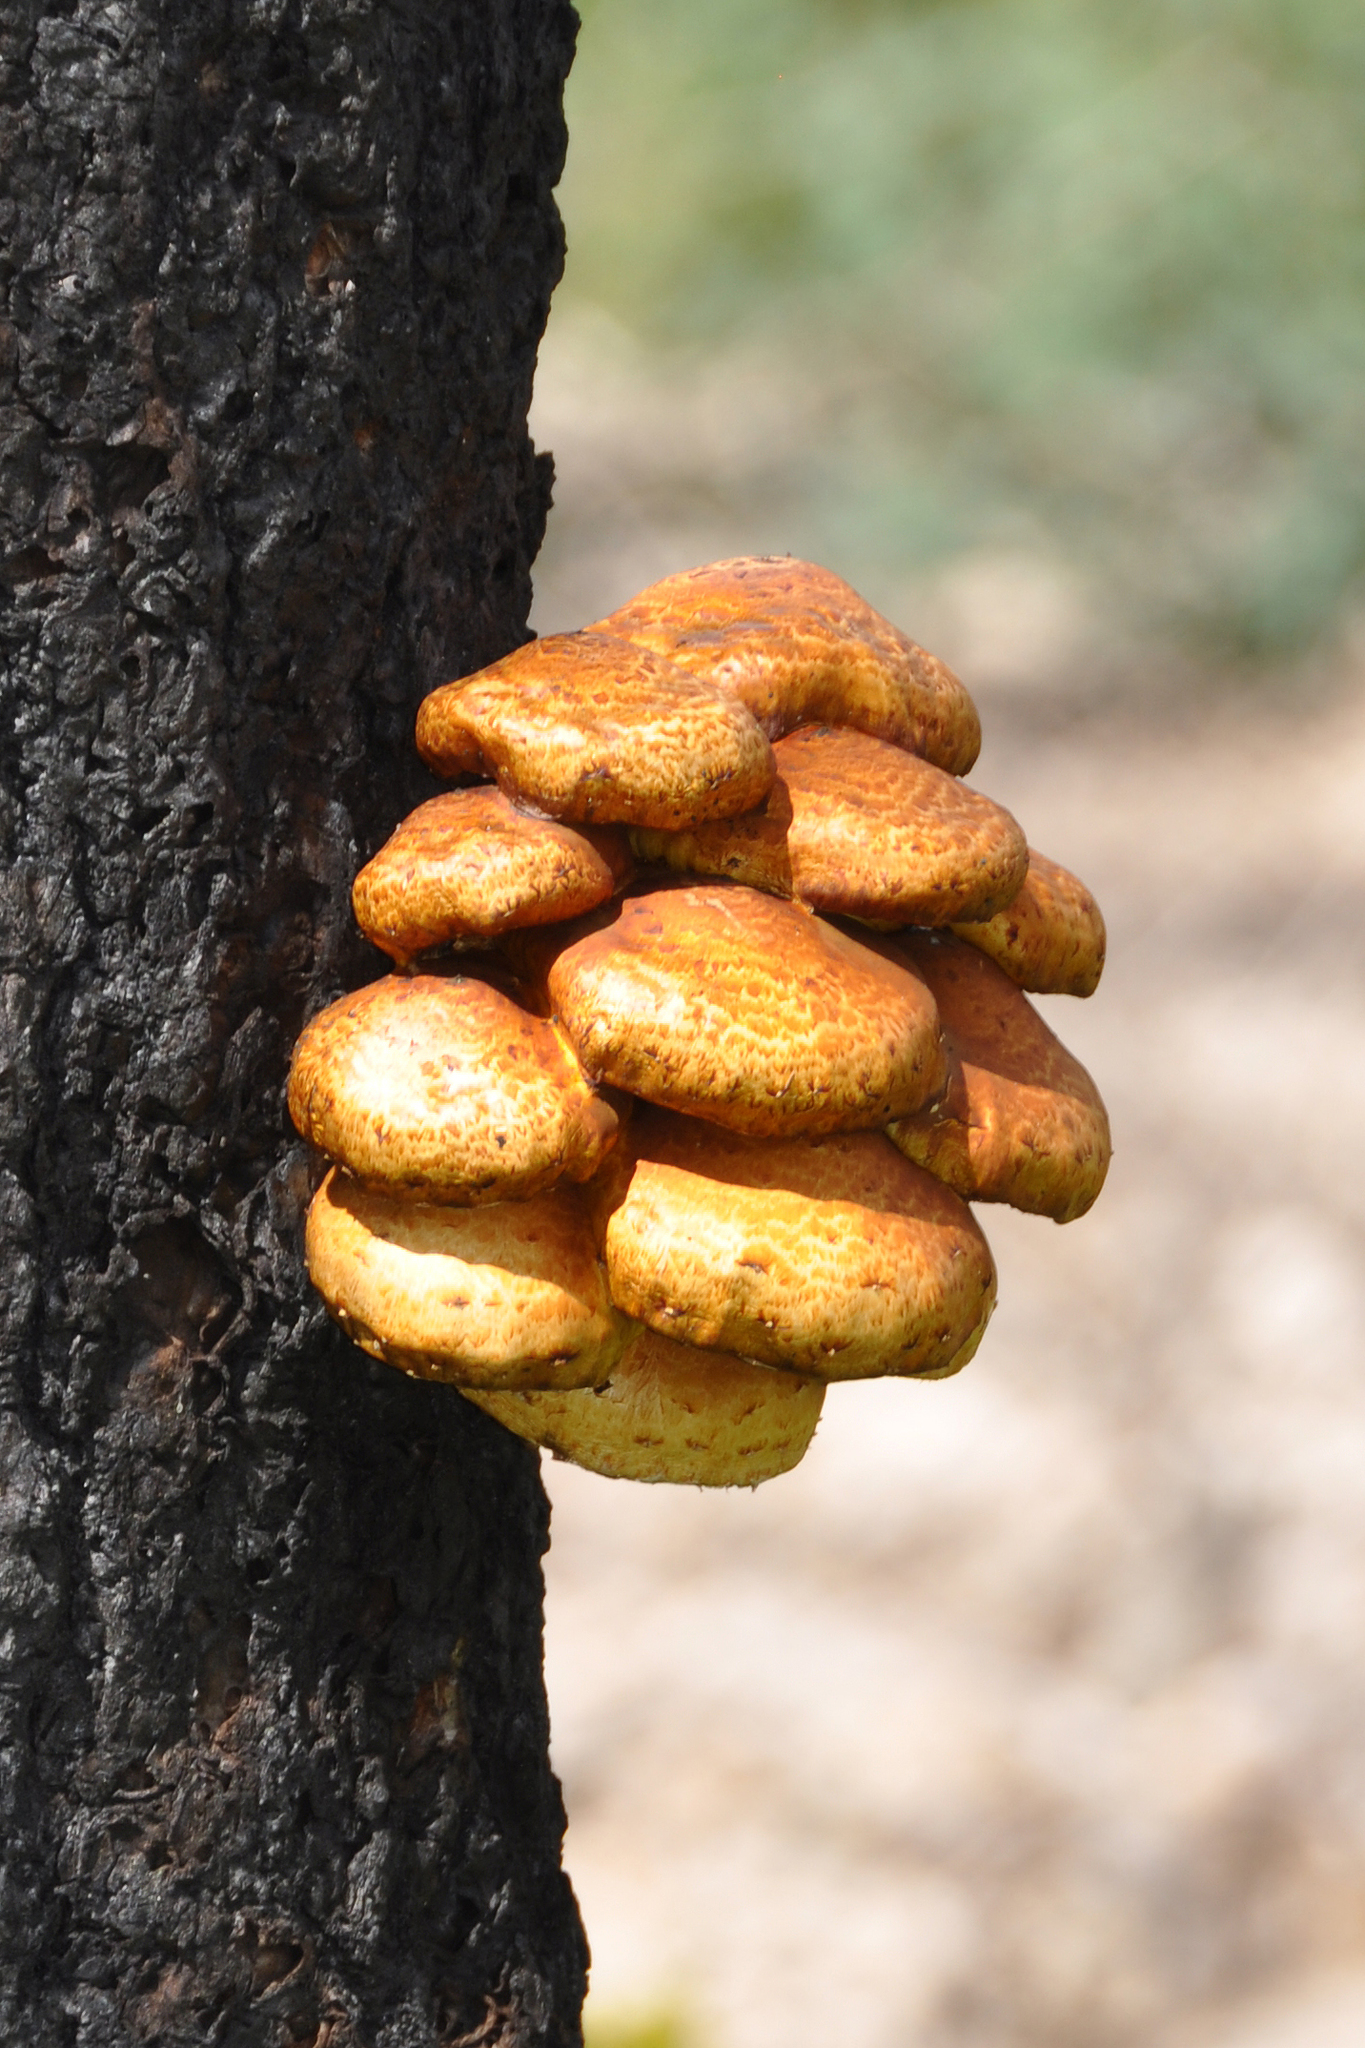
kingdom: Fungi
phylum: Basidiomycota
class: Agaricomycetes
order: Agaricales
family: Strophariaceae
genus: Pholiota
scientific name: Pholiota aurivella
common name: Golden scalycap
